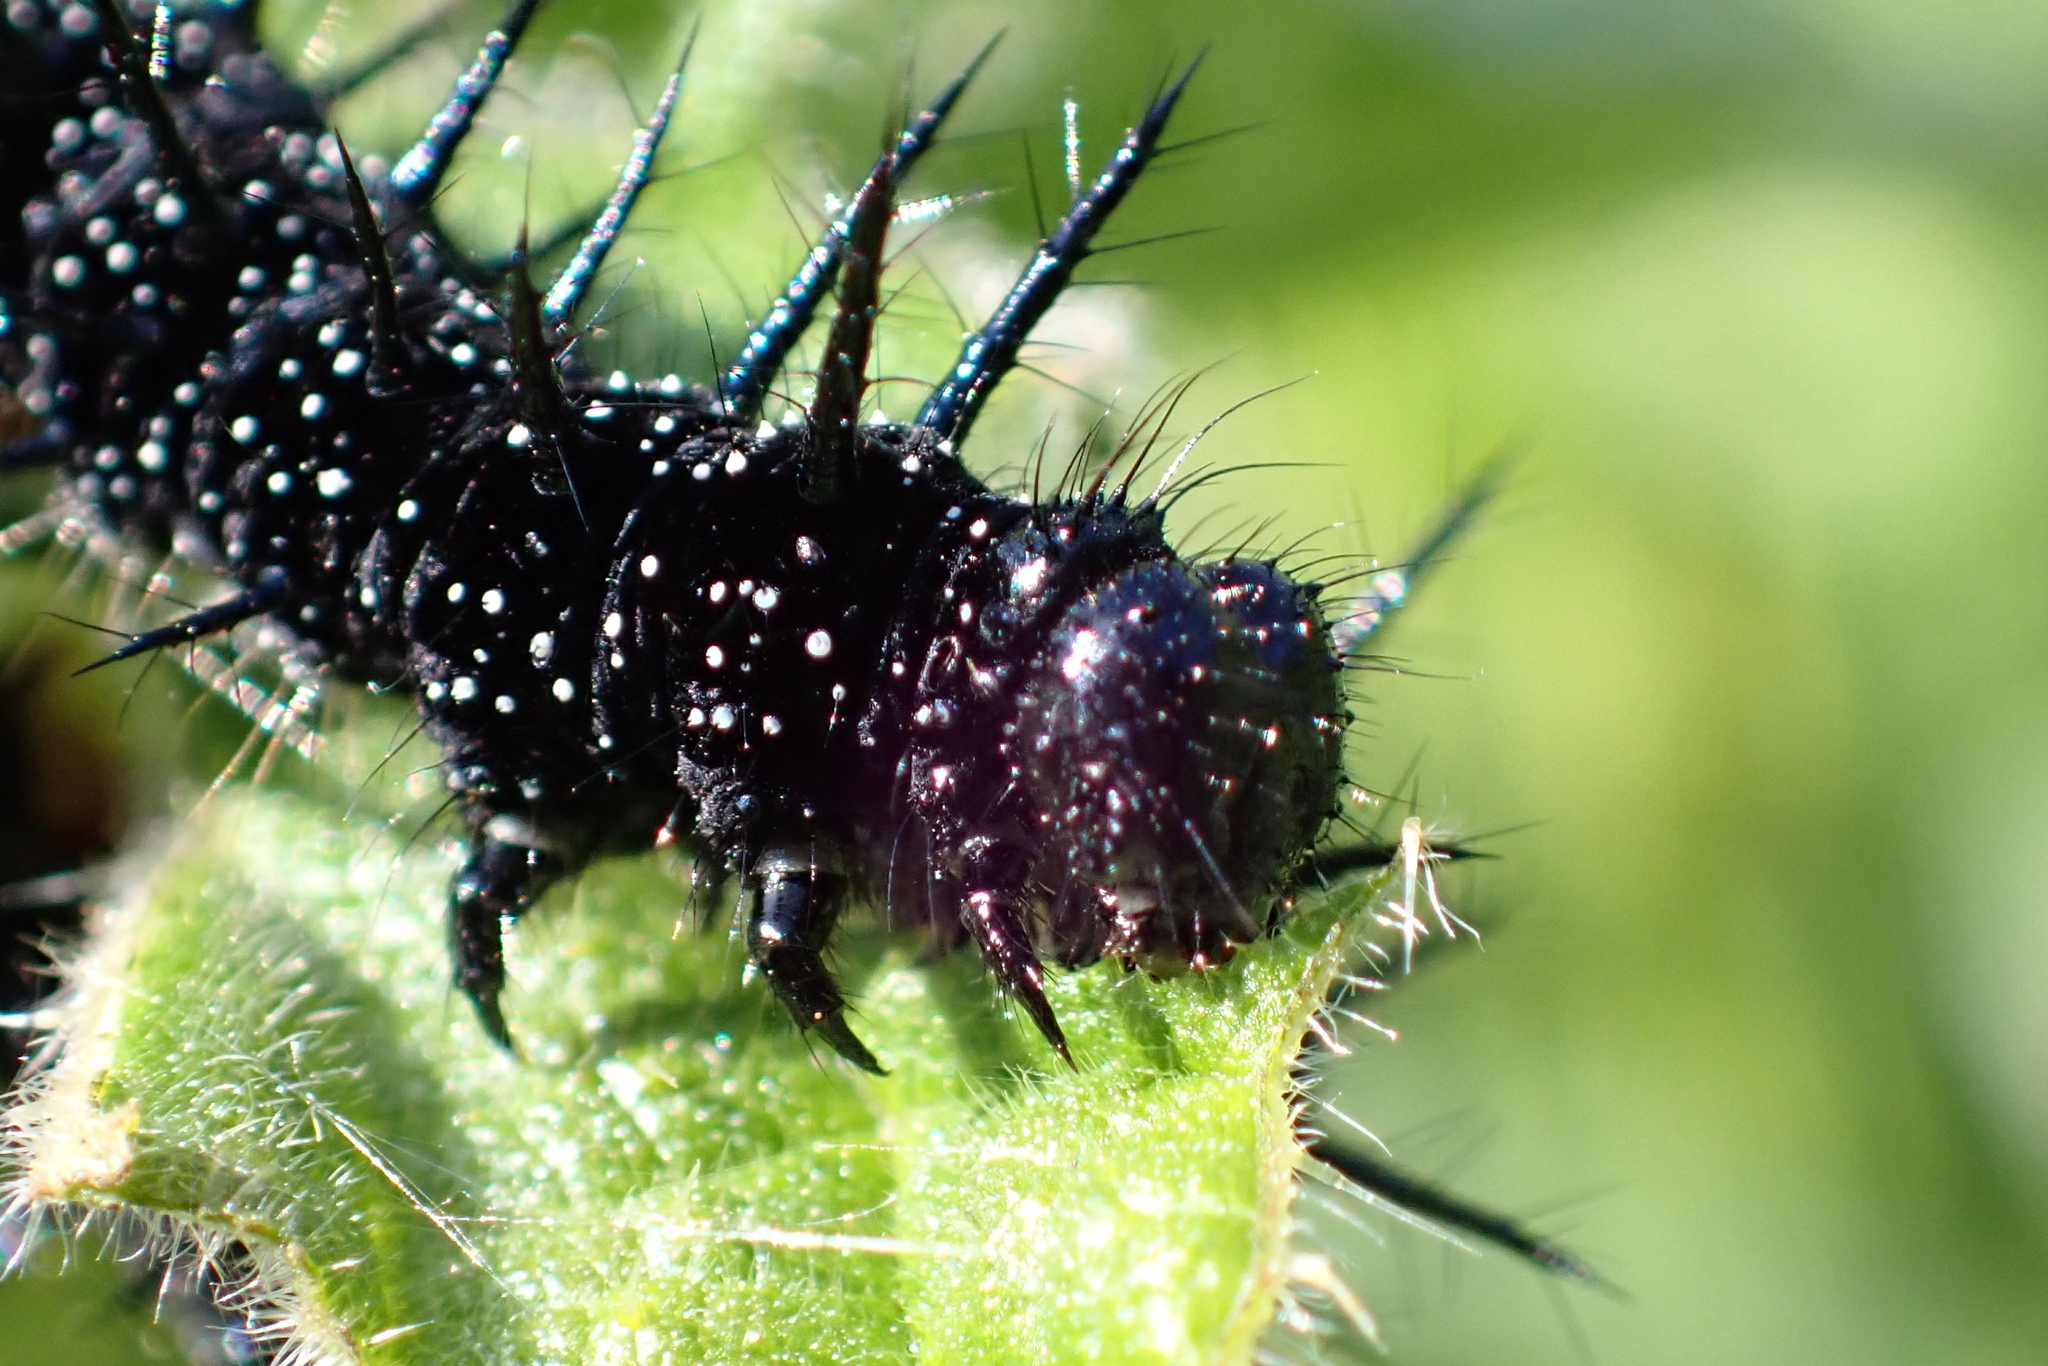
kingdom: Animalia
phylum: Arthropoda
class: Insecta
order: Lepidoptera
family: Nymphalidae
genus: Aglais
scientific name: Aglais io
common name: Peacock
